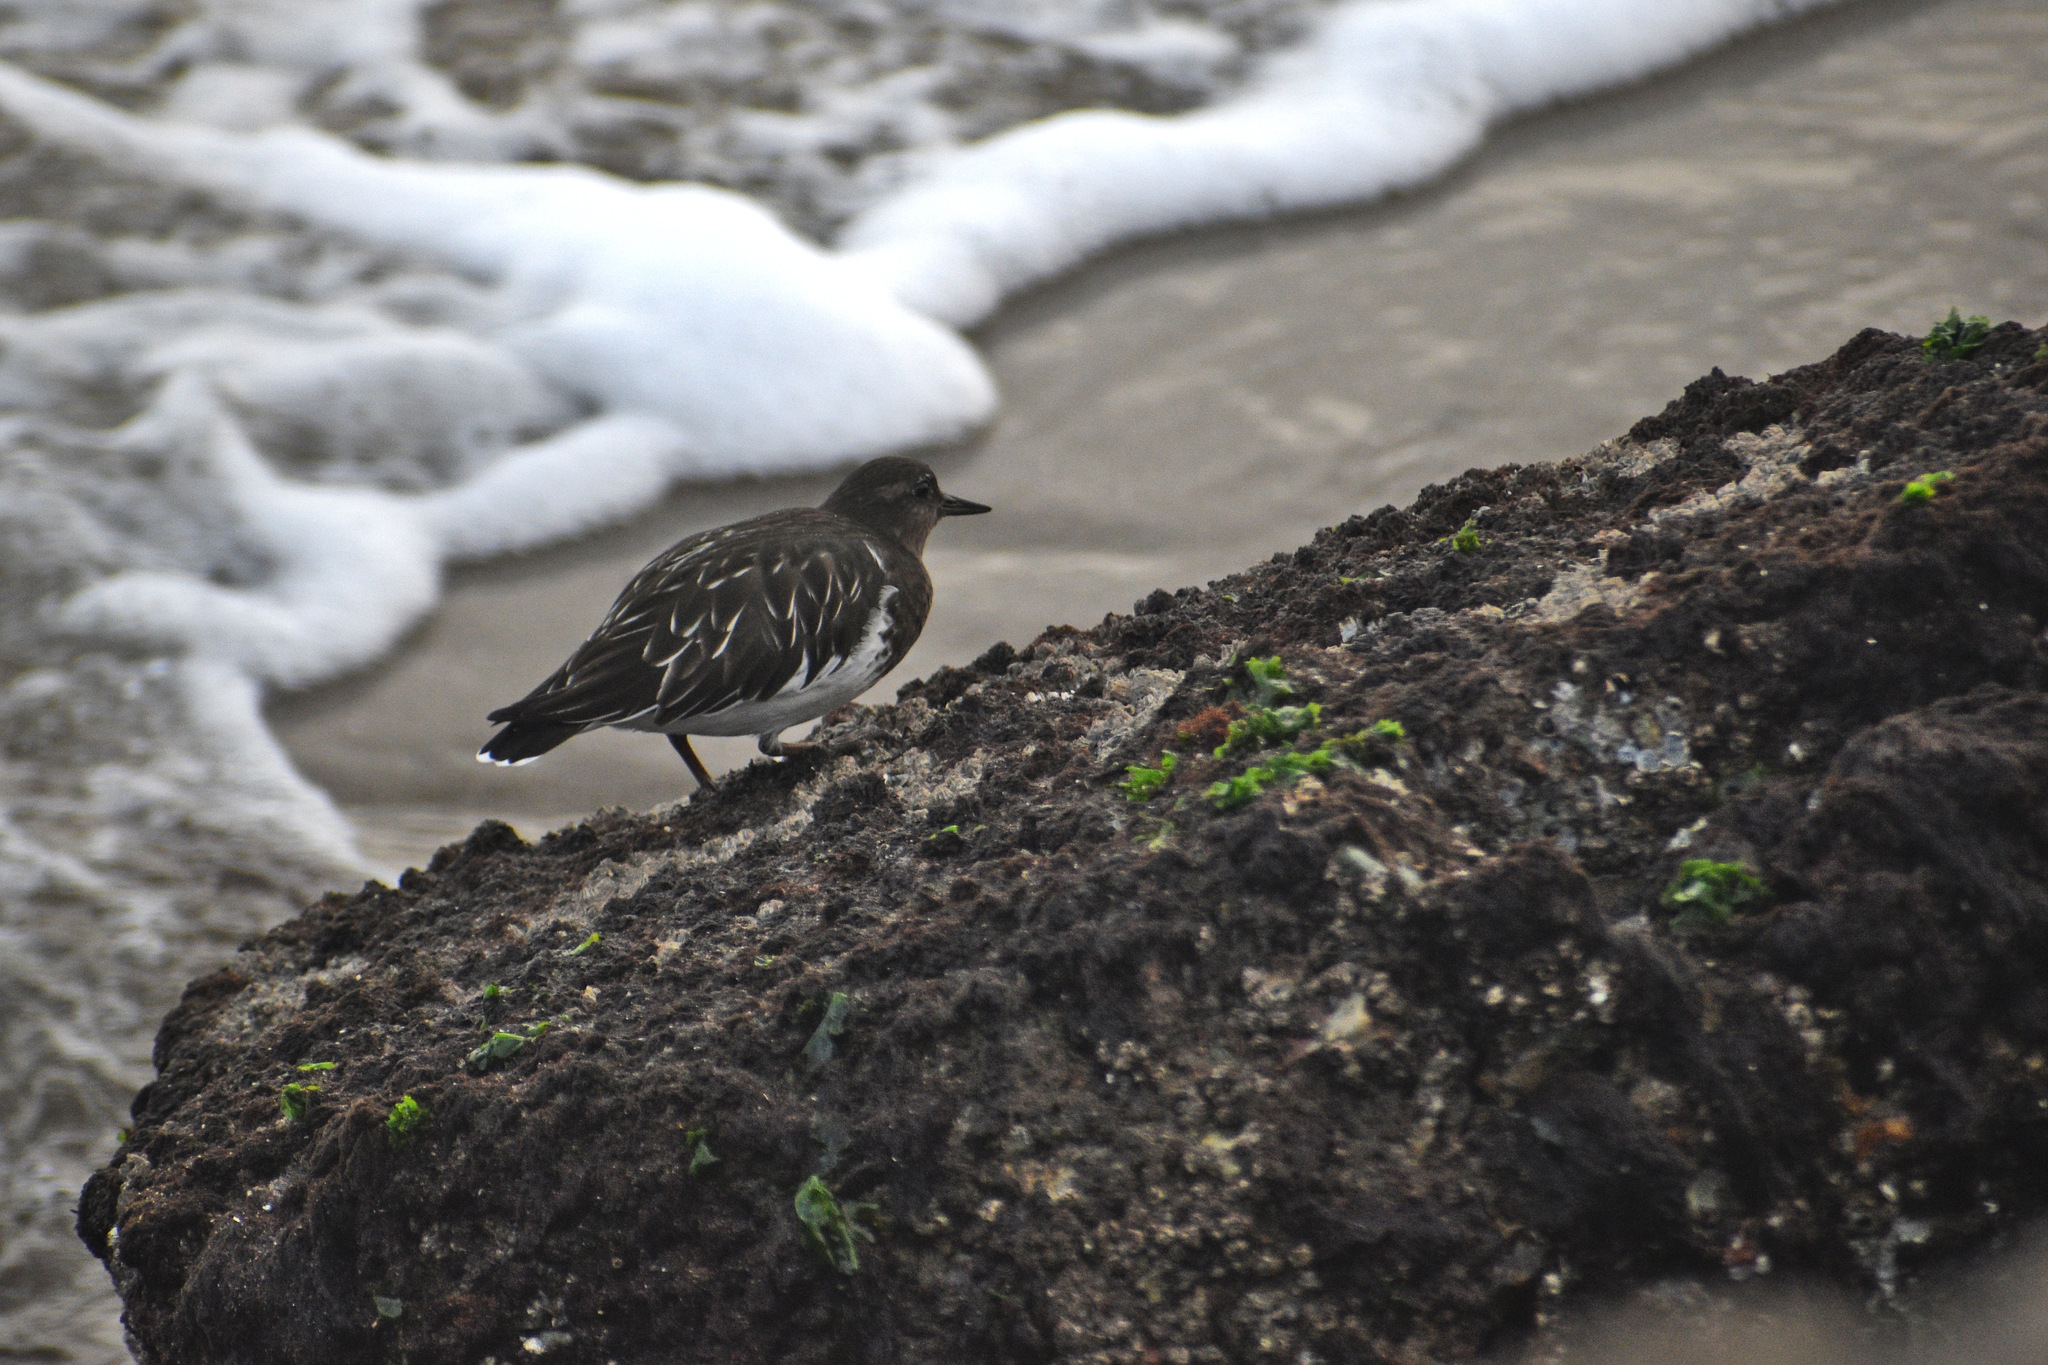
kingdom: Animalia
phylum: Chordata
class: Aves
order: Charadriiformes
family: Scolopacidae
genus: Arenaria
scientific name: Arenaria melanocephala
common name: Black turnstone
